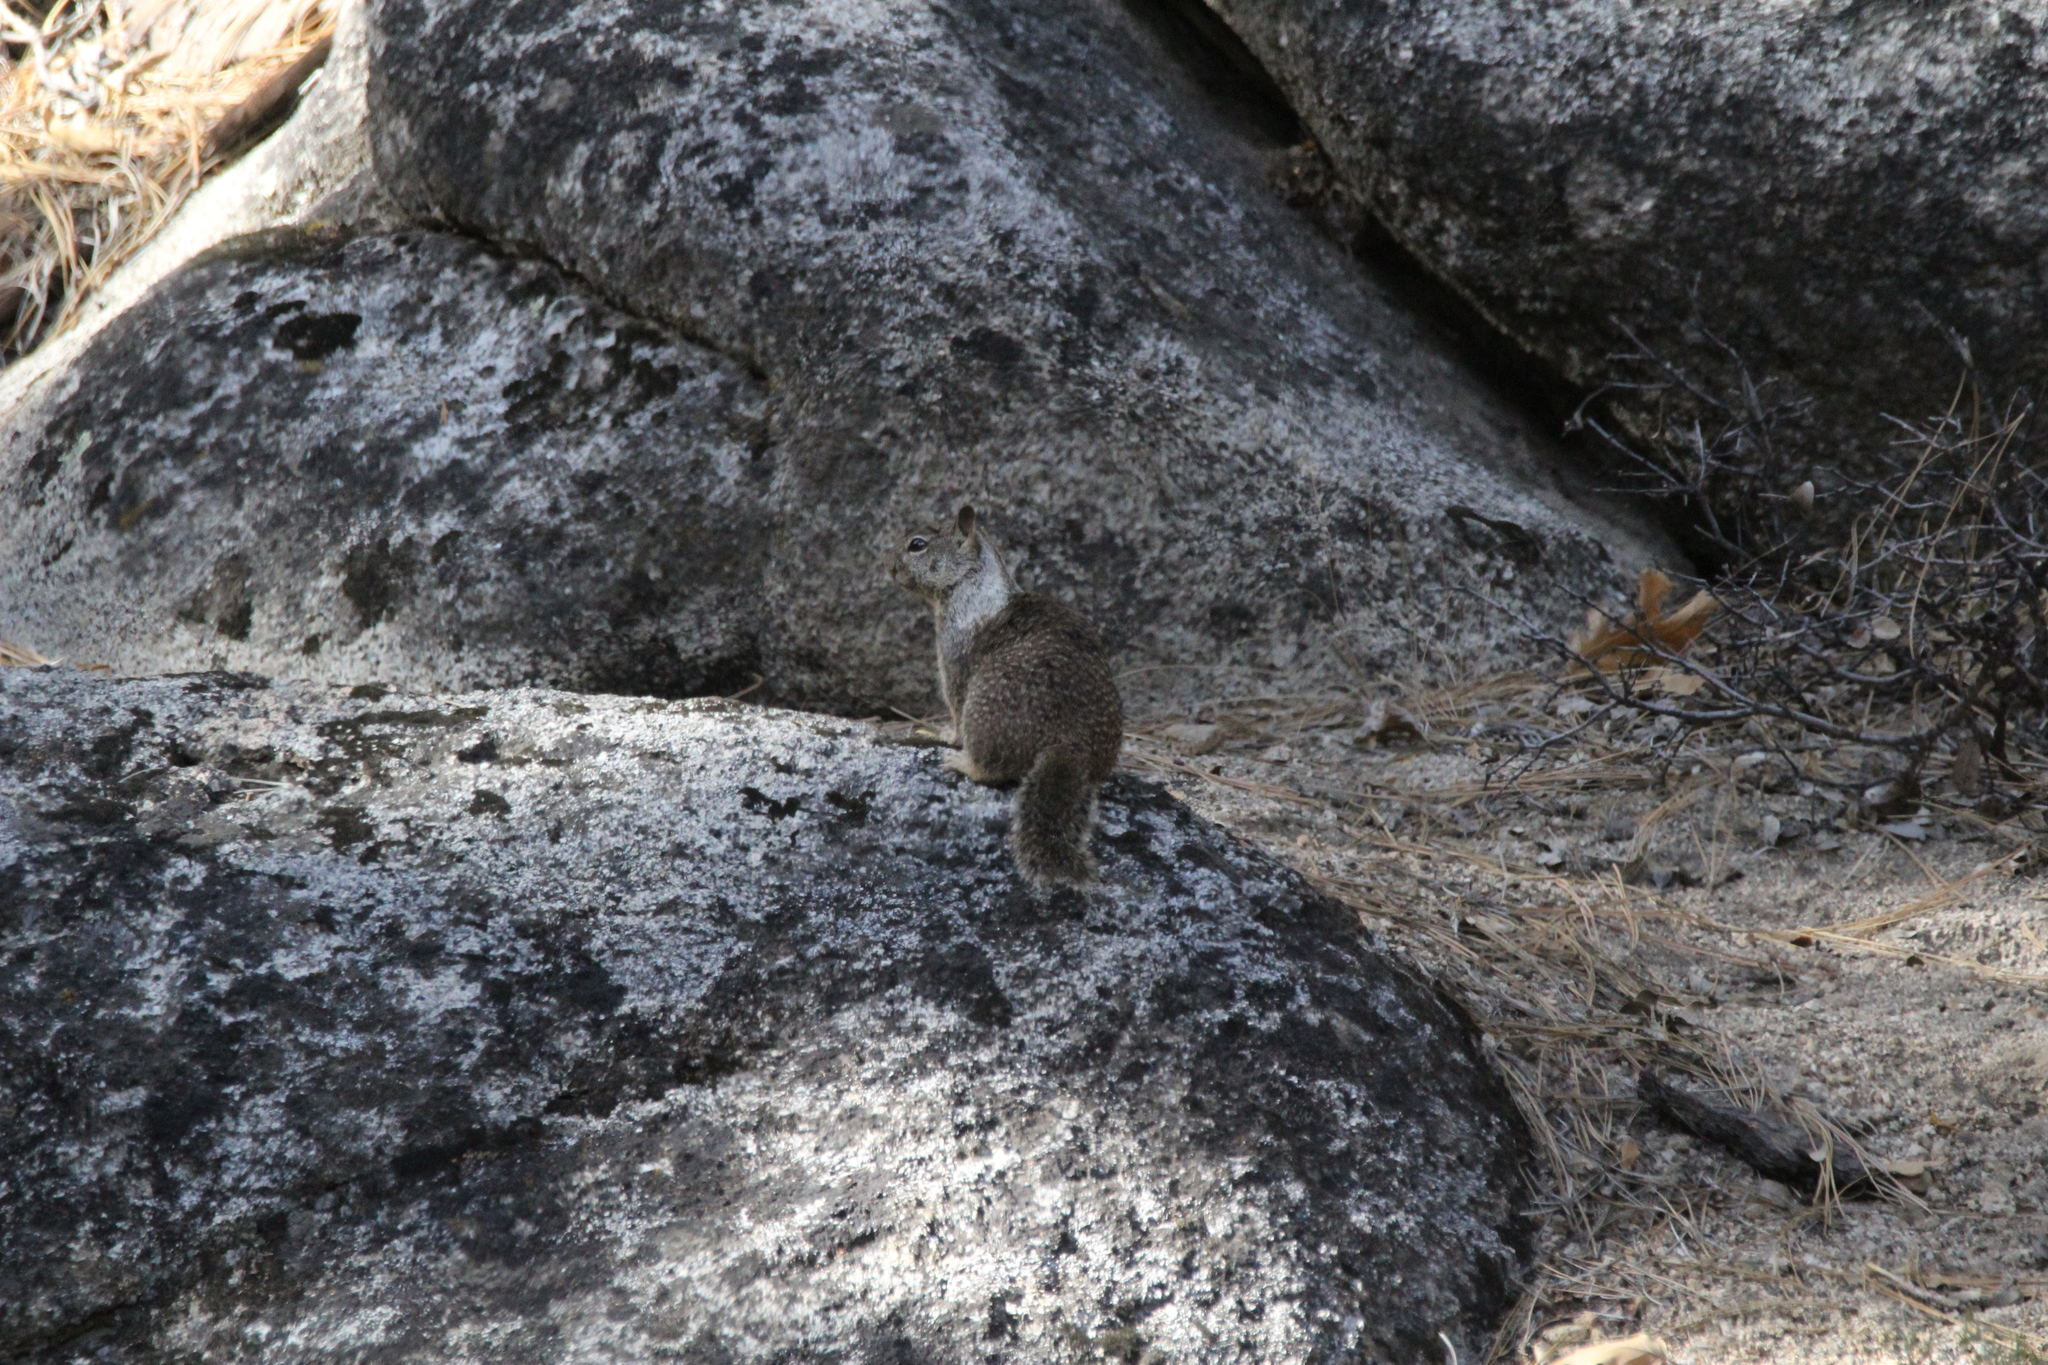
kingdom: Animalia
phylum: Chordata
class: Mammalia
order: Rodentia
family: Sciuridae
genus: Otospermophilus
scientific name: Otospermophilus beecheyi
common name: California ground squirrel
